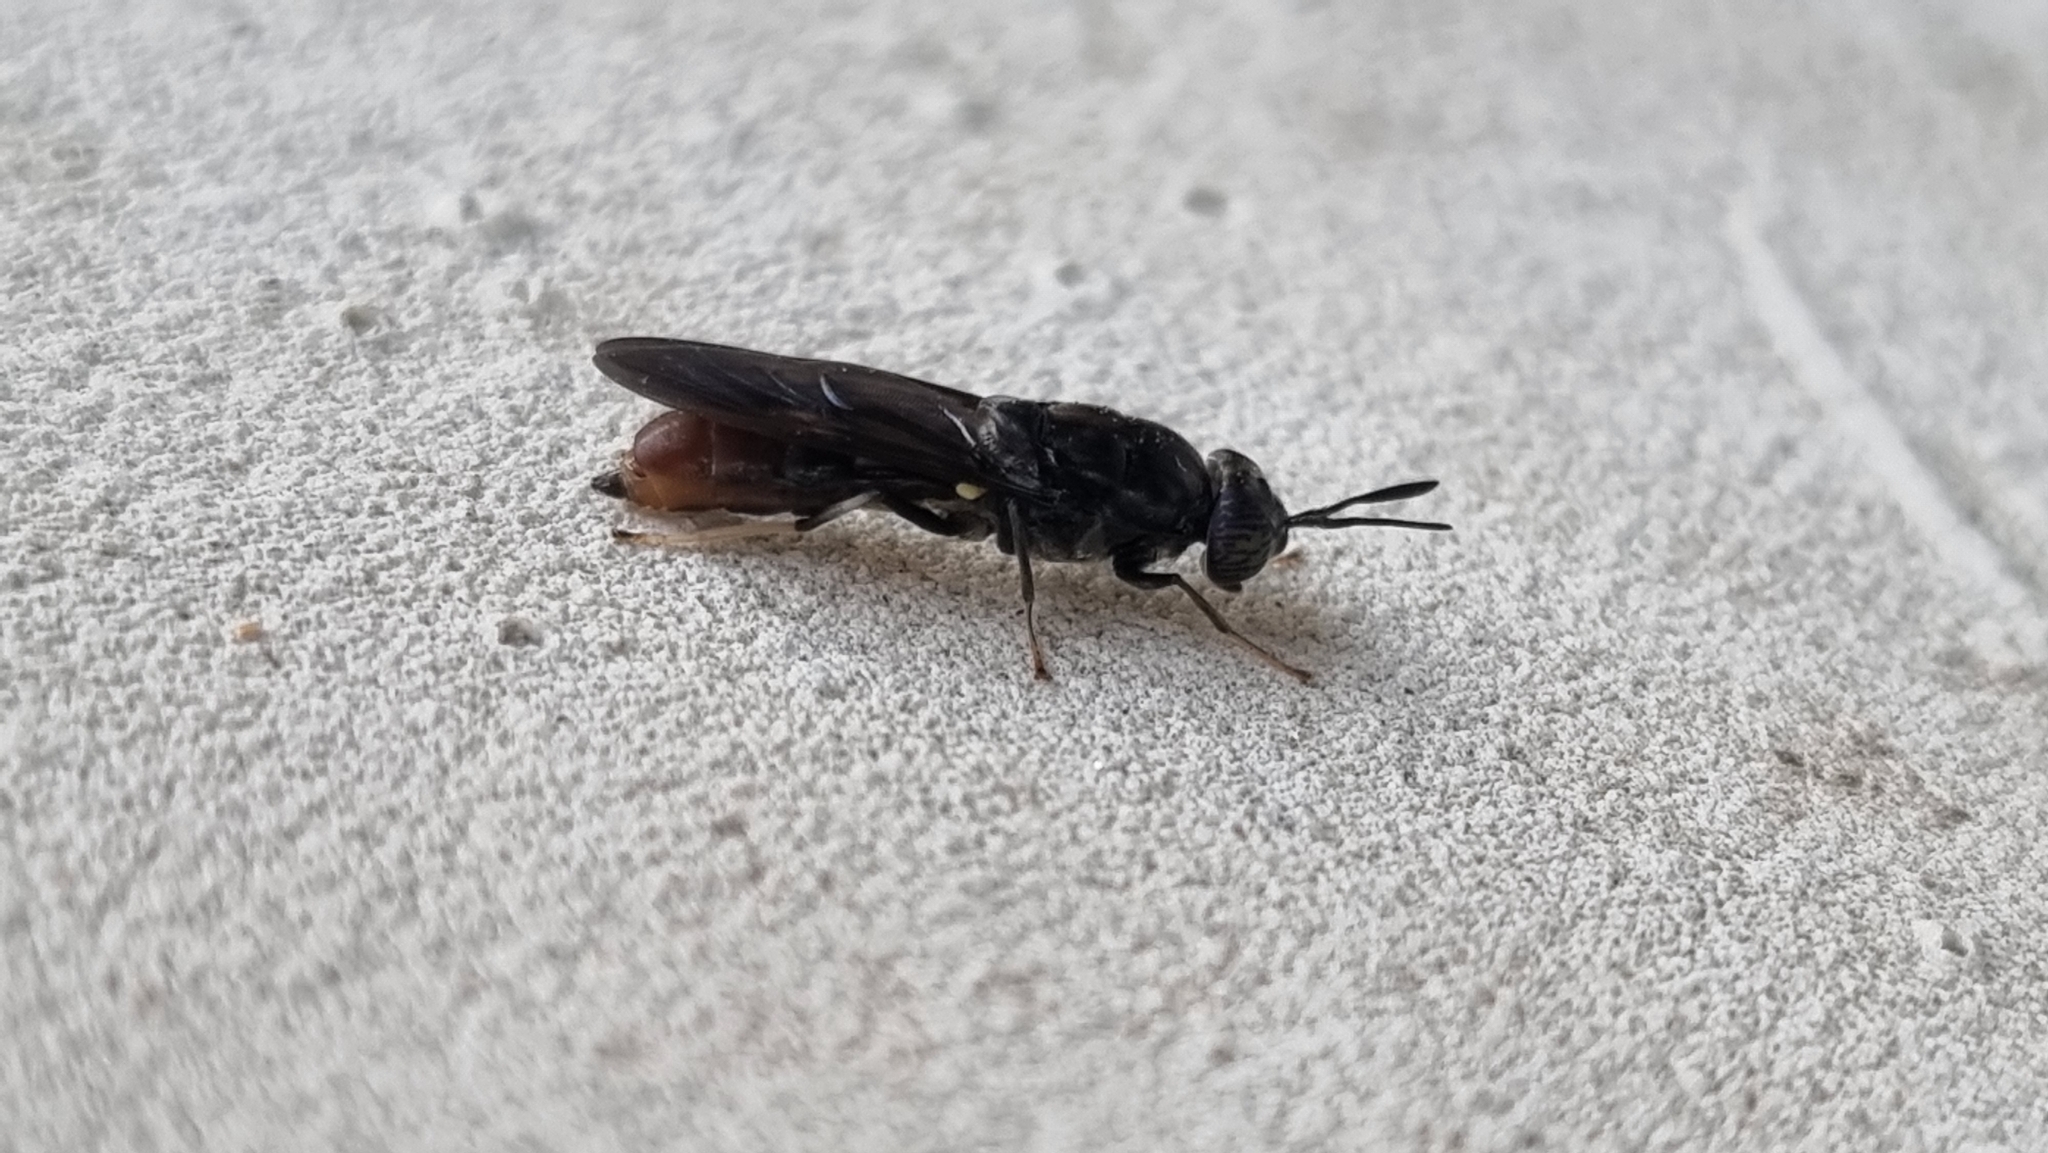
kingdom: Animalia
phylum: Arthropoda
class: Insecta
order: Diptera
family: Stratiomyidae
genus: Hermetia
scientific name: Hermetia illucens
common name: Black soldier fly
